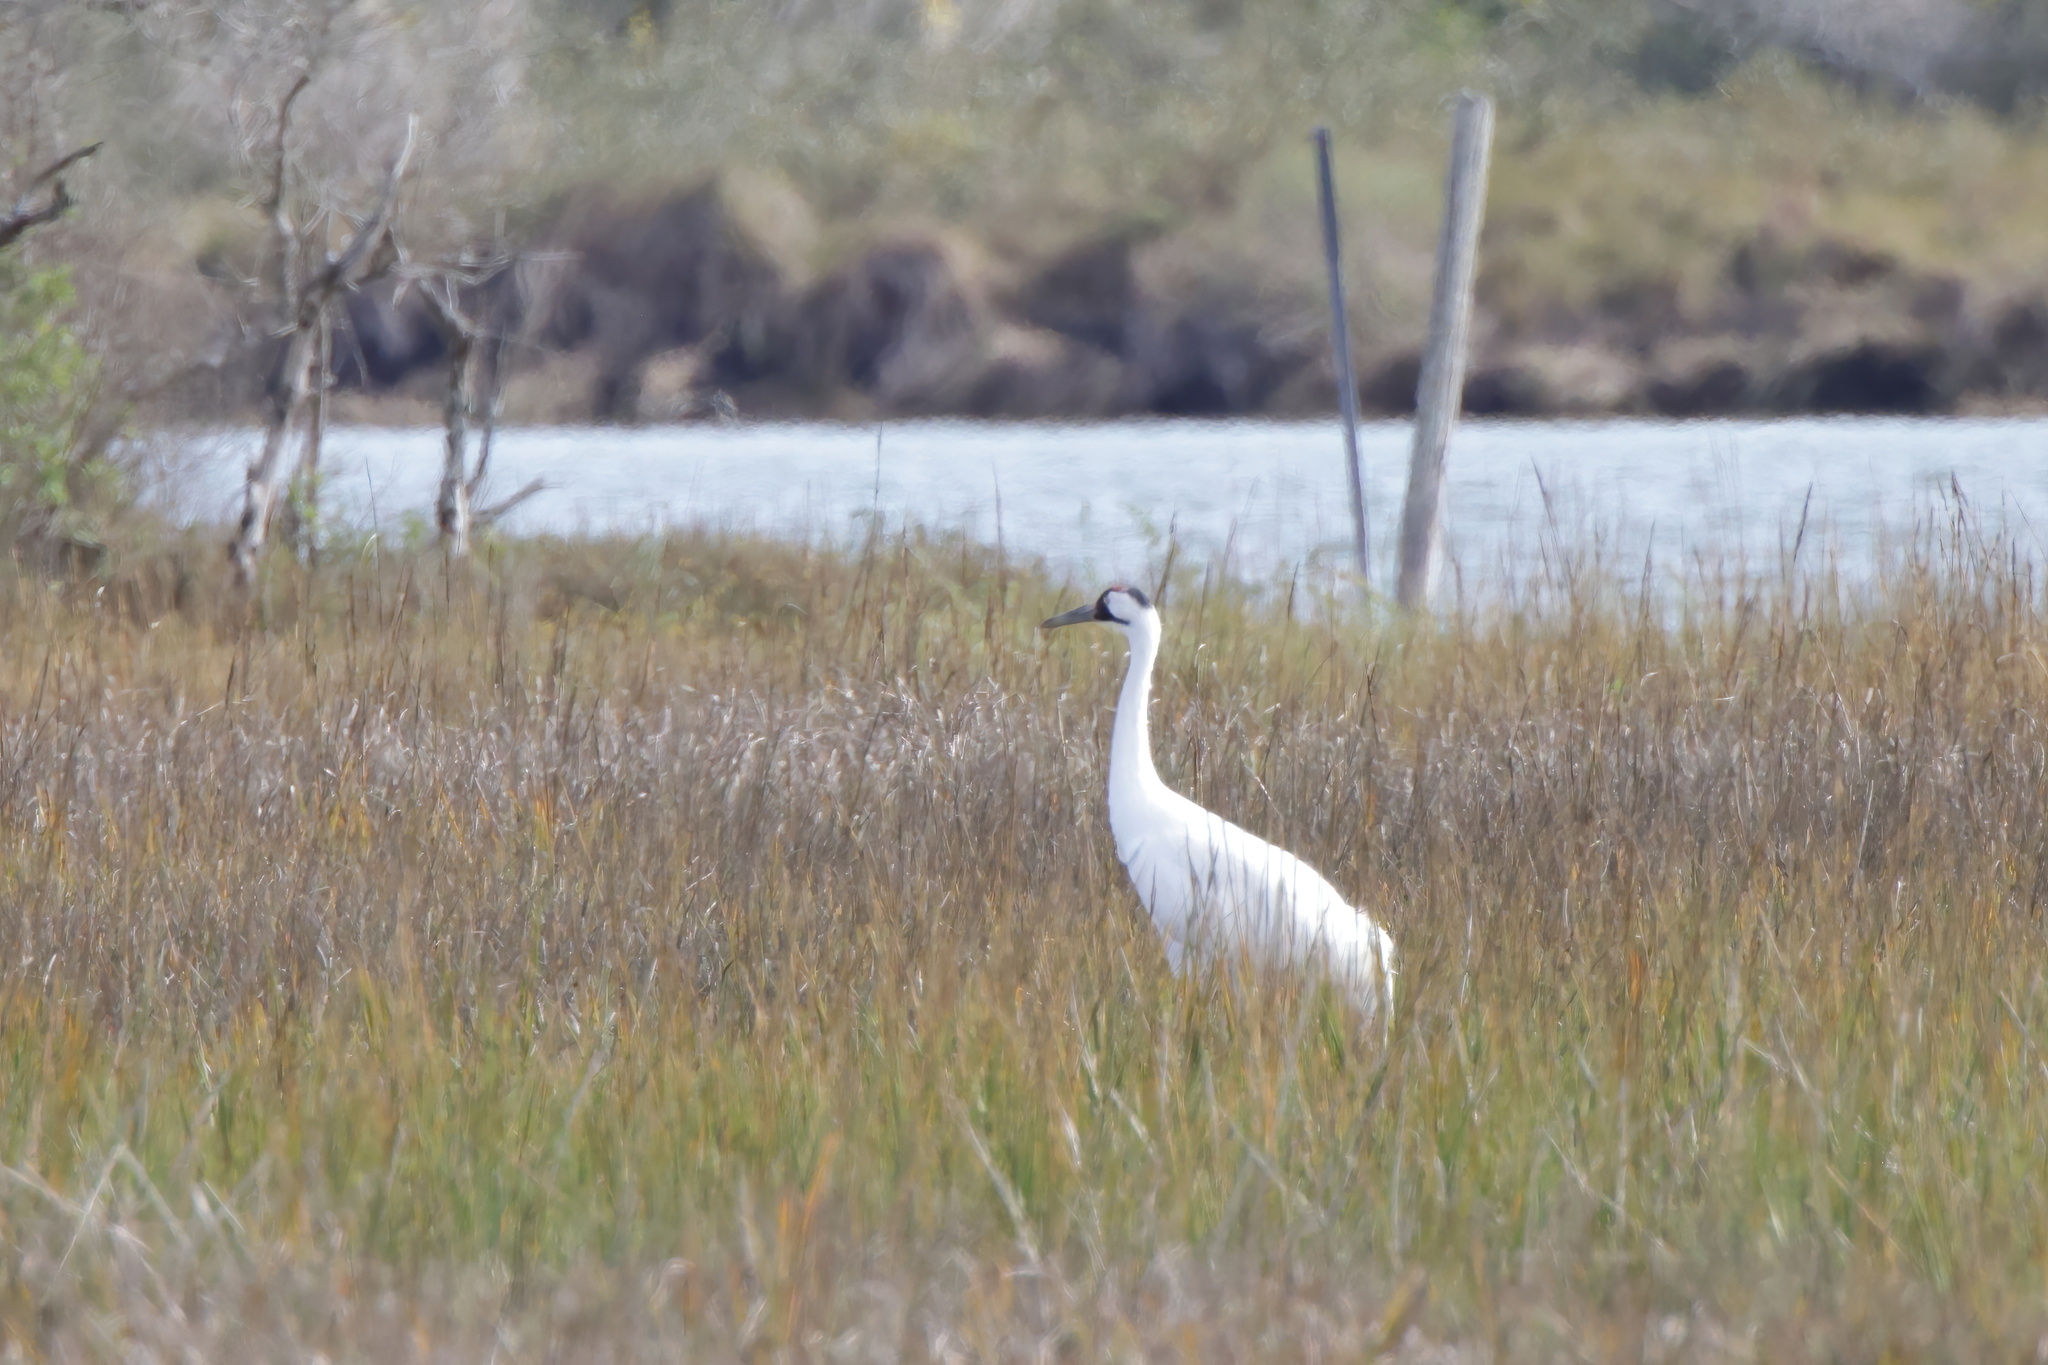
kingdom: Animalia
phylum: Chordata
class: Aves
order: Gruiformes
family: Gruidae
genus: Grus
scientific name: Grus americana
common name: Whooping crane
